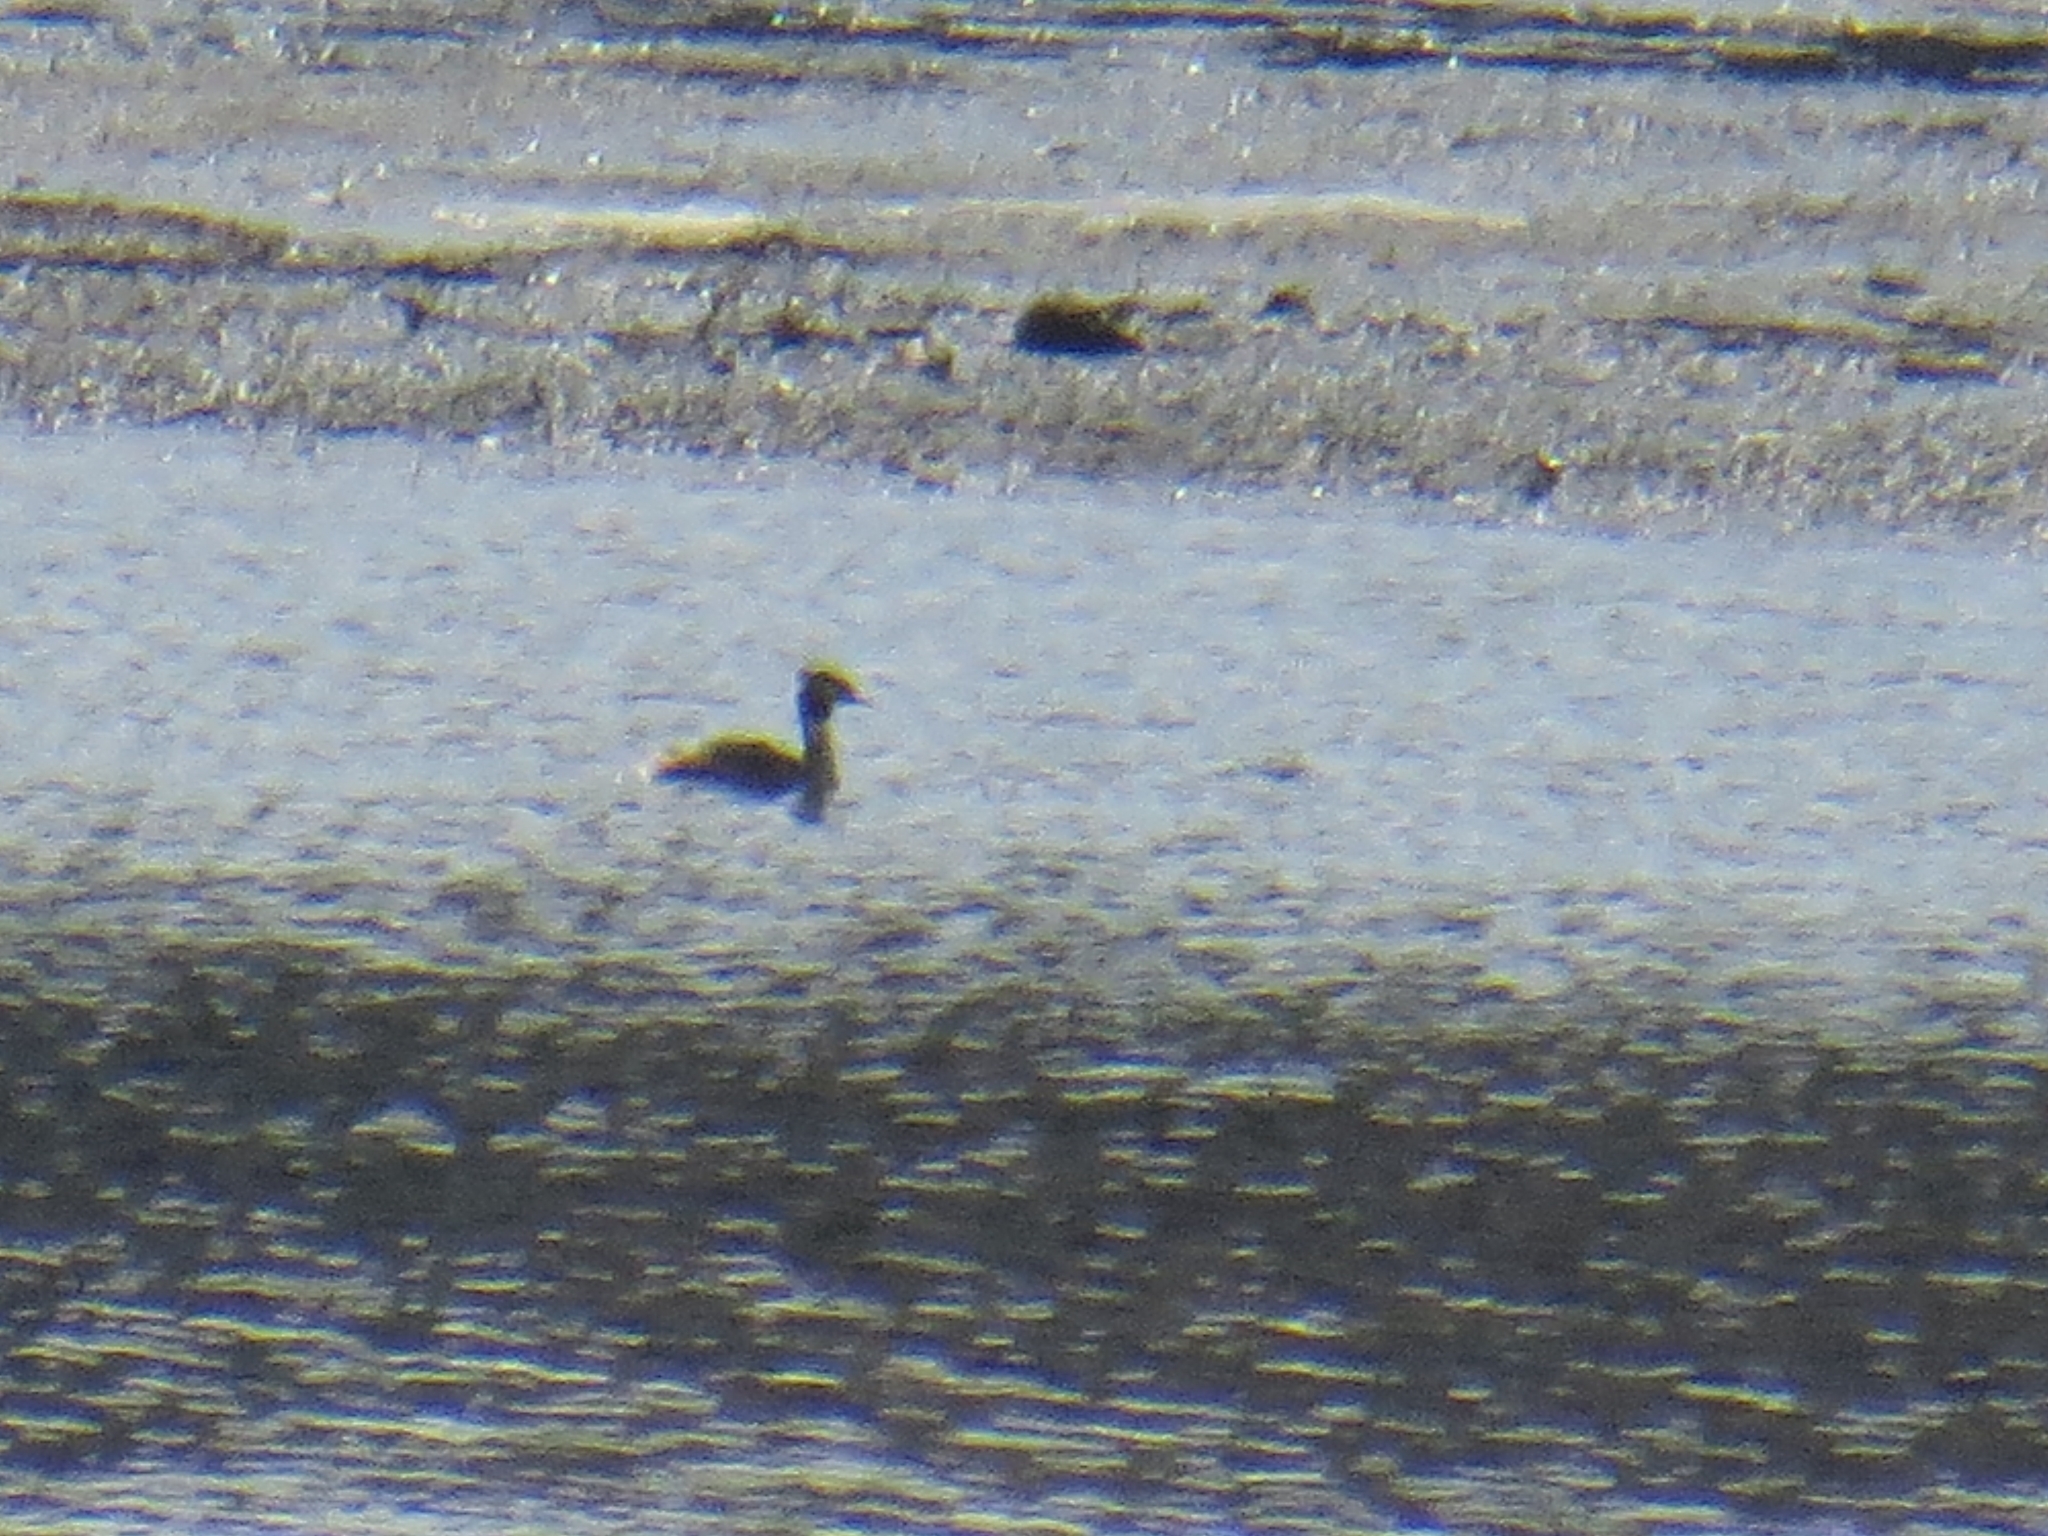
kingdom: Animalia
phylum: Chordata
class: Aves
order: Podicipediformes
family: Podicipedidae
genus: Podiceps
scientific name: Podiceps cristatus
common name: Great crested grebe
